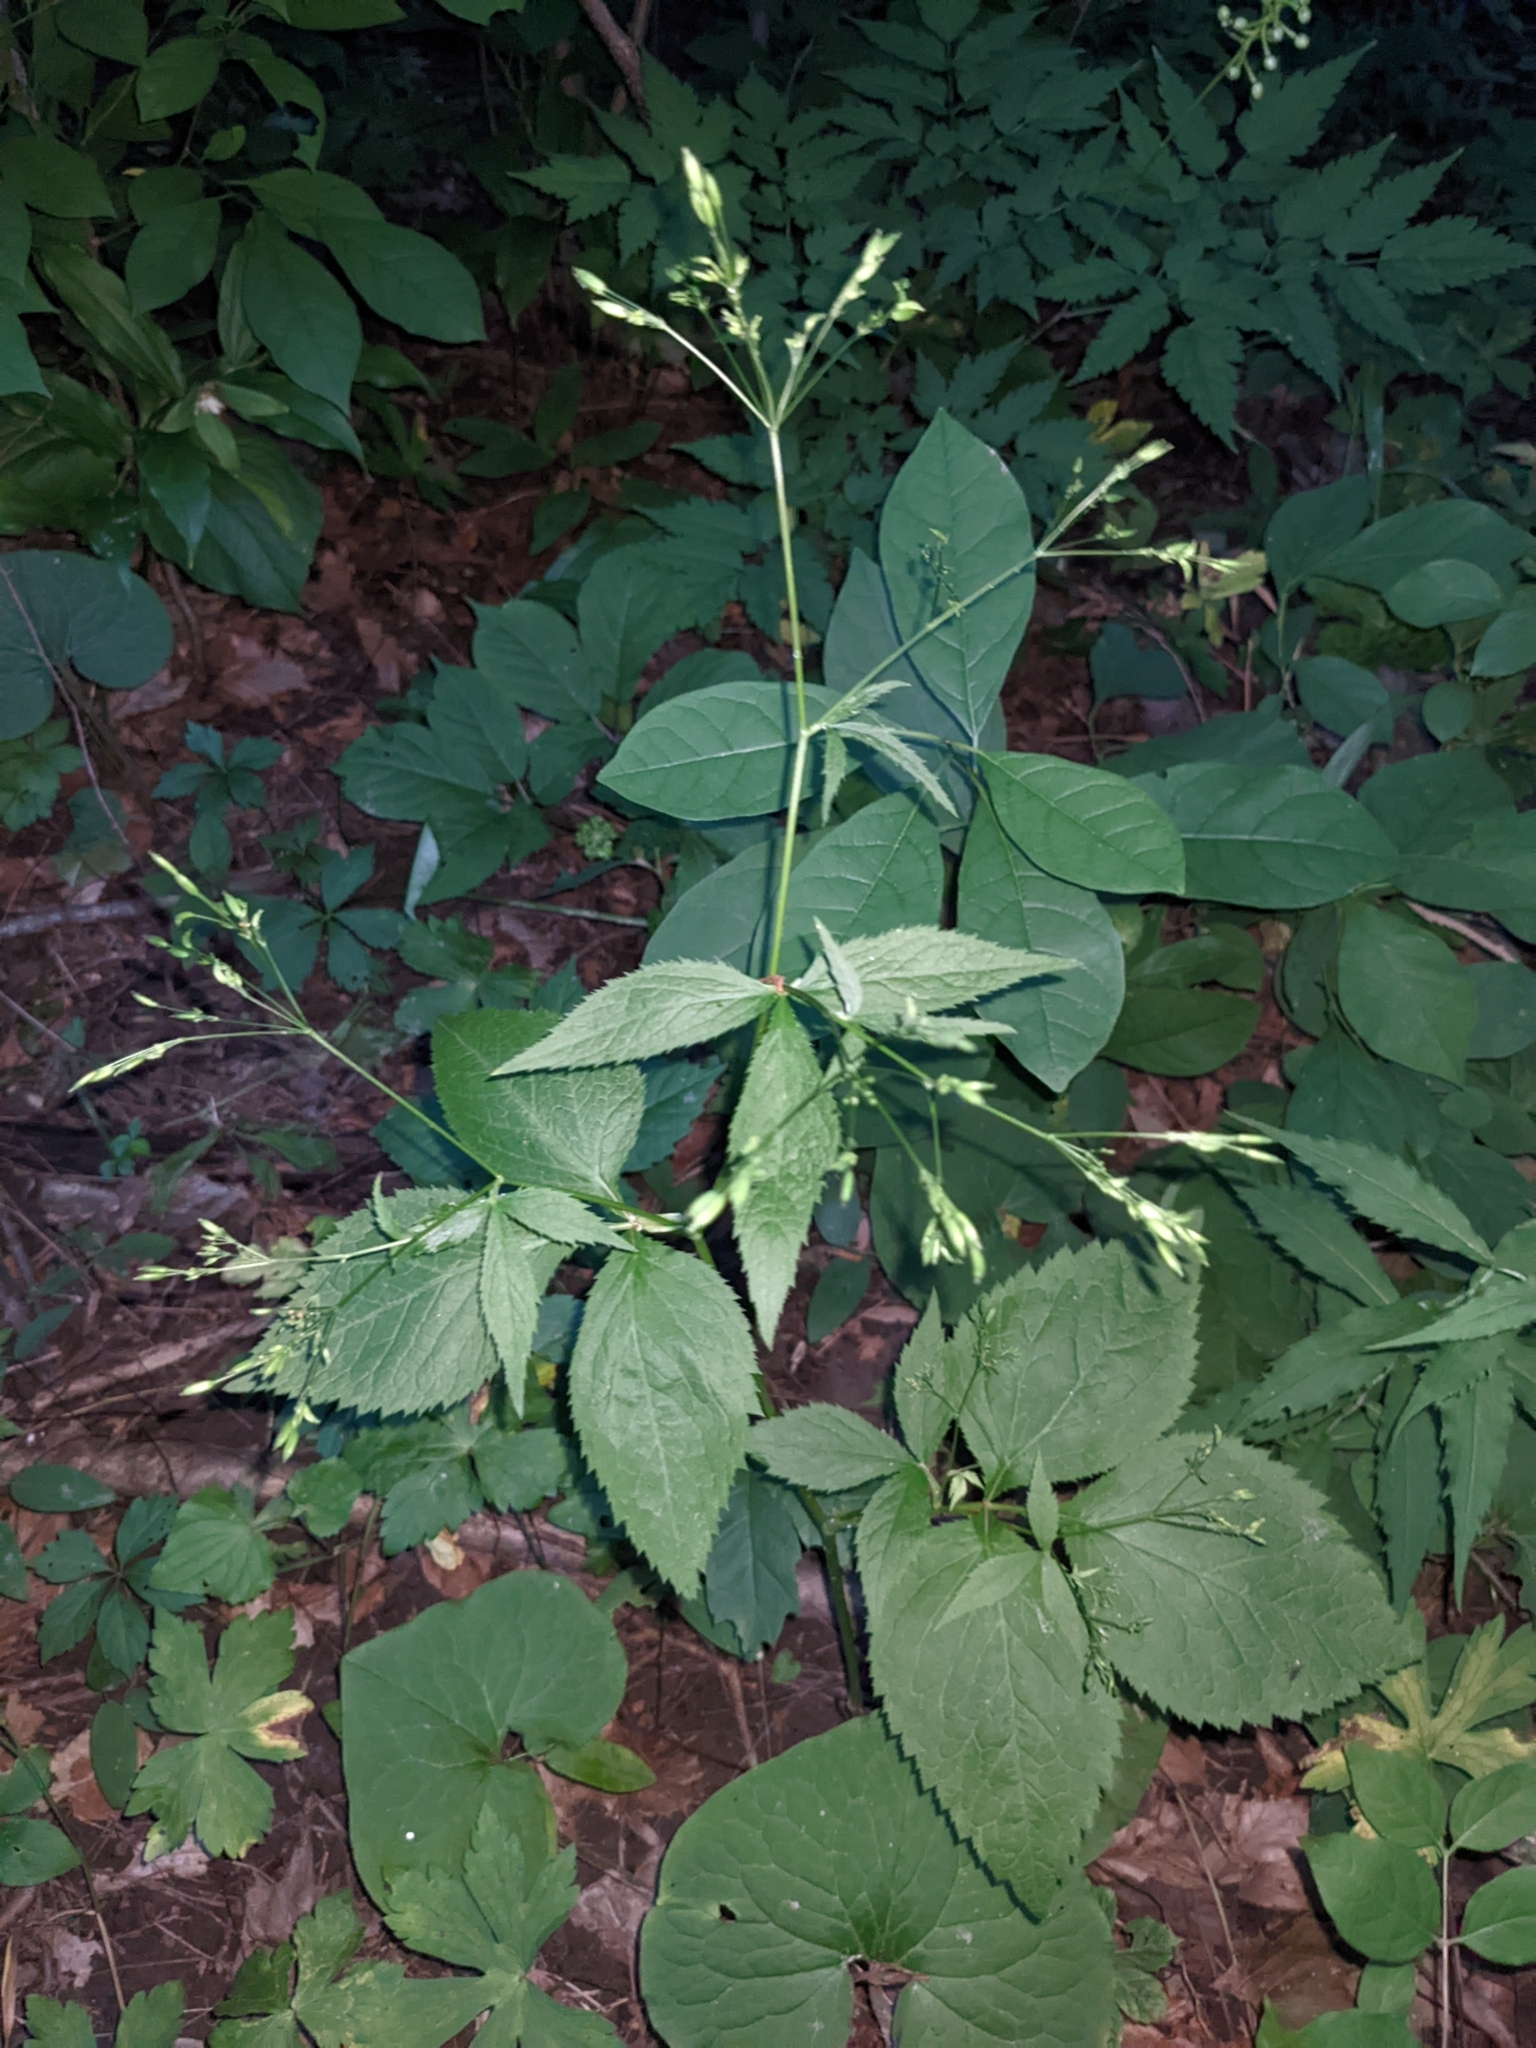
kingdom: Plantae
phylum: Tracheophyta
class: Magnoliopsida
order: Apiales
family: Apiaceae
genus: Cryptotaenia
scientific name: Cryptotaenia canadensis
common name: Honewort
